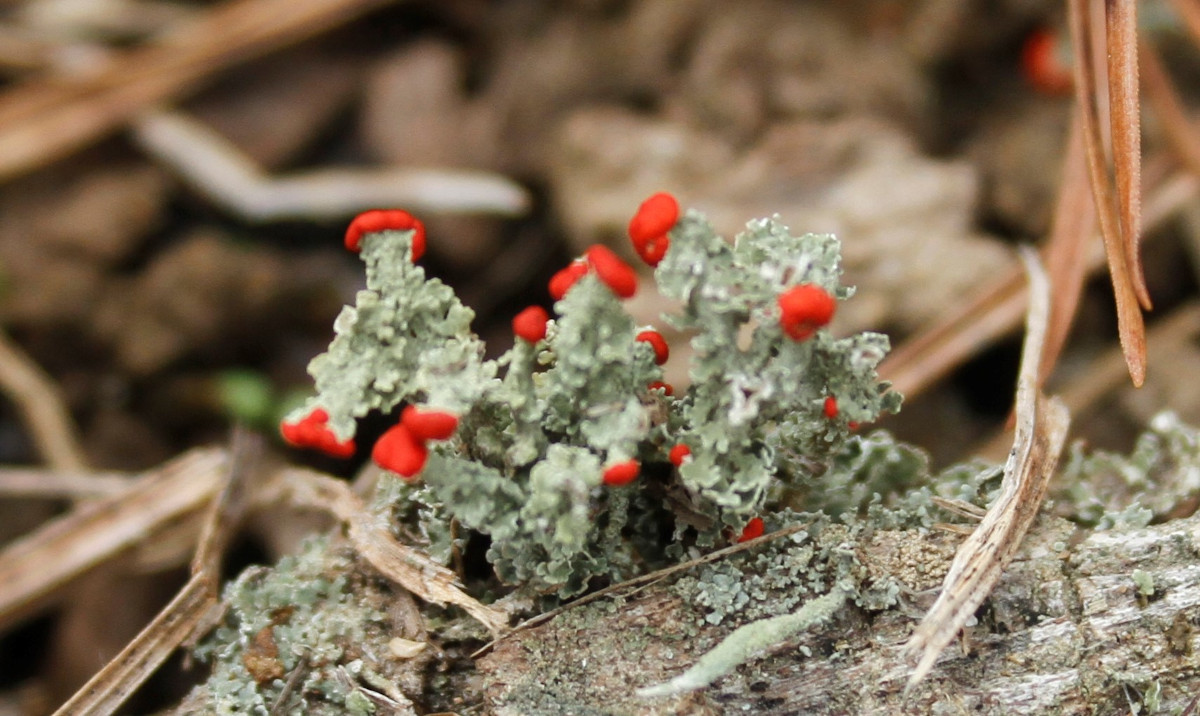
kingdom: Fungi
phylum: Ascomycota
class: Lecanoromycetes
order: Lecanorales
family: Cladoniaceae
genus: Cladonia
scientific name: Cladonia cristatella
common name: British soldier lichen
